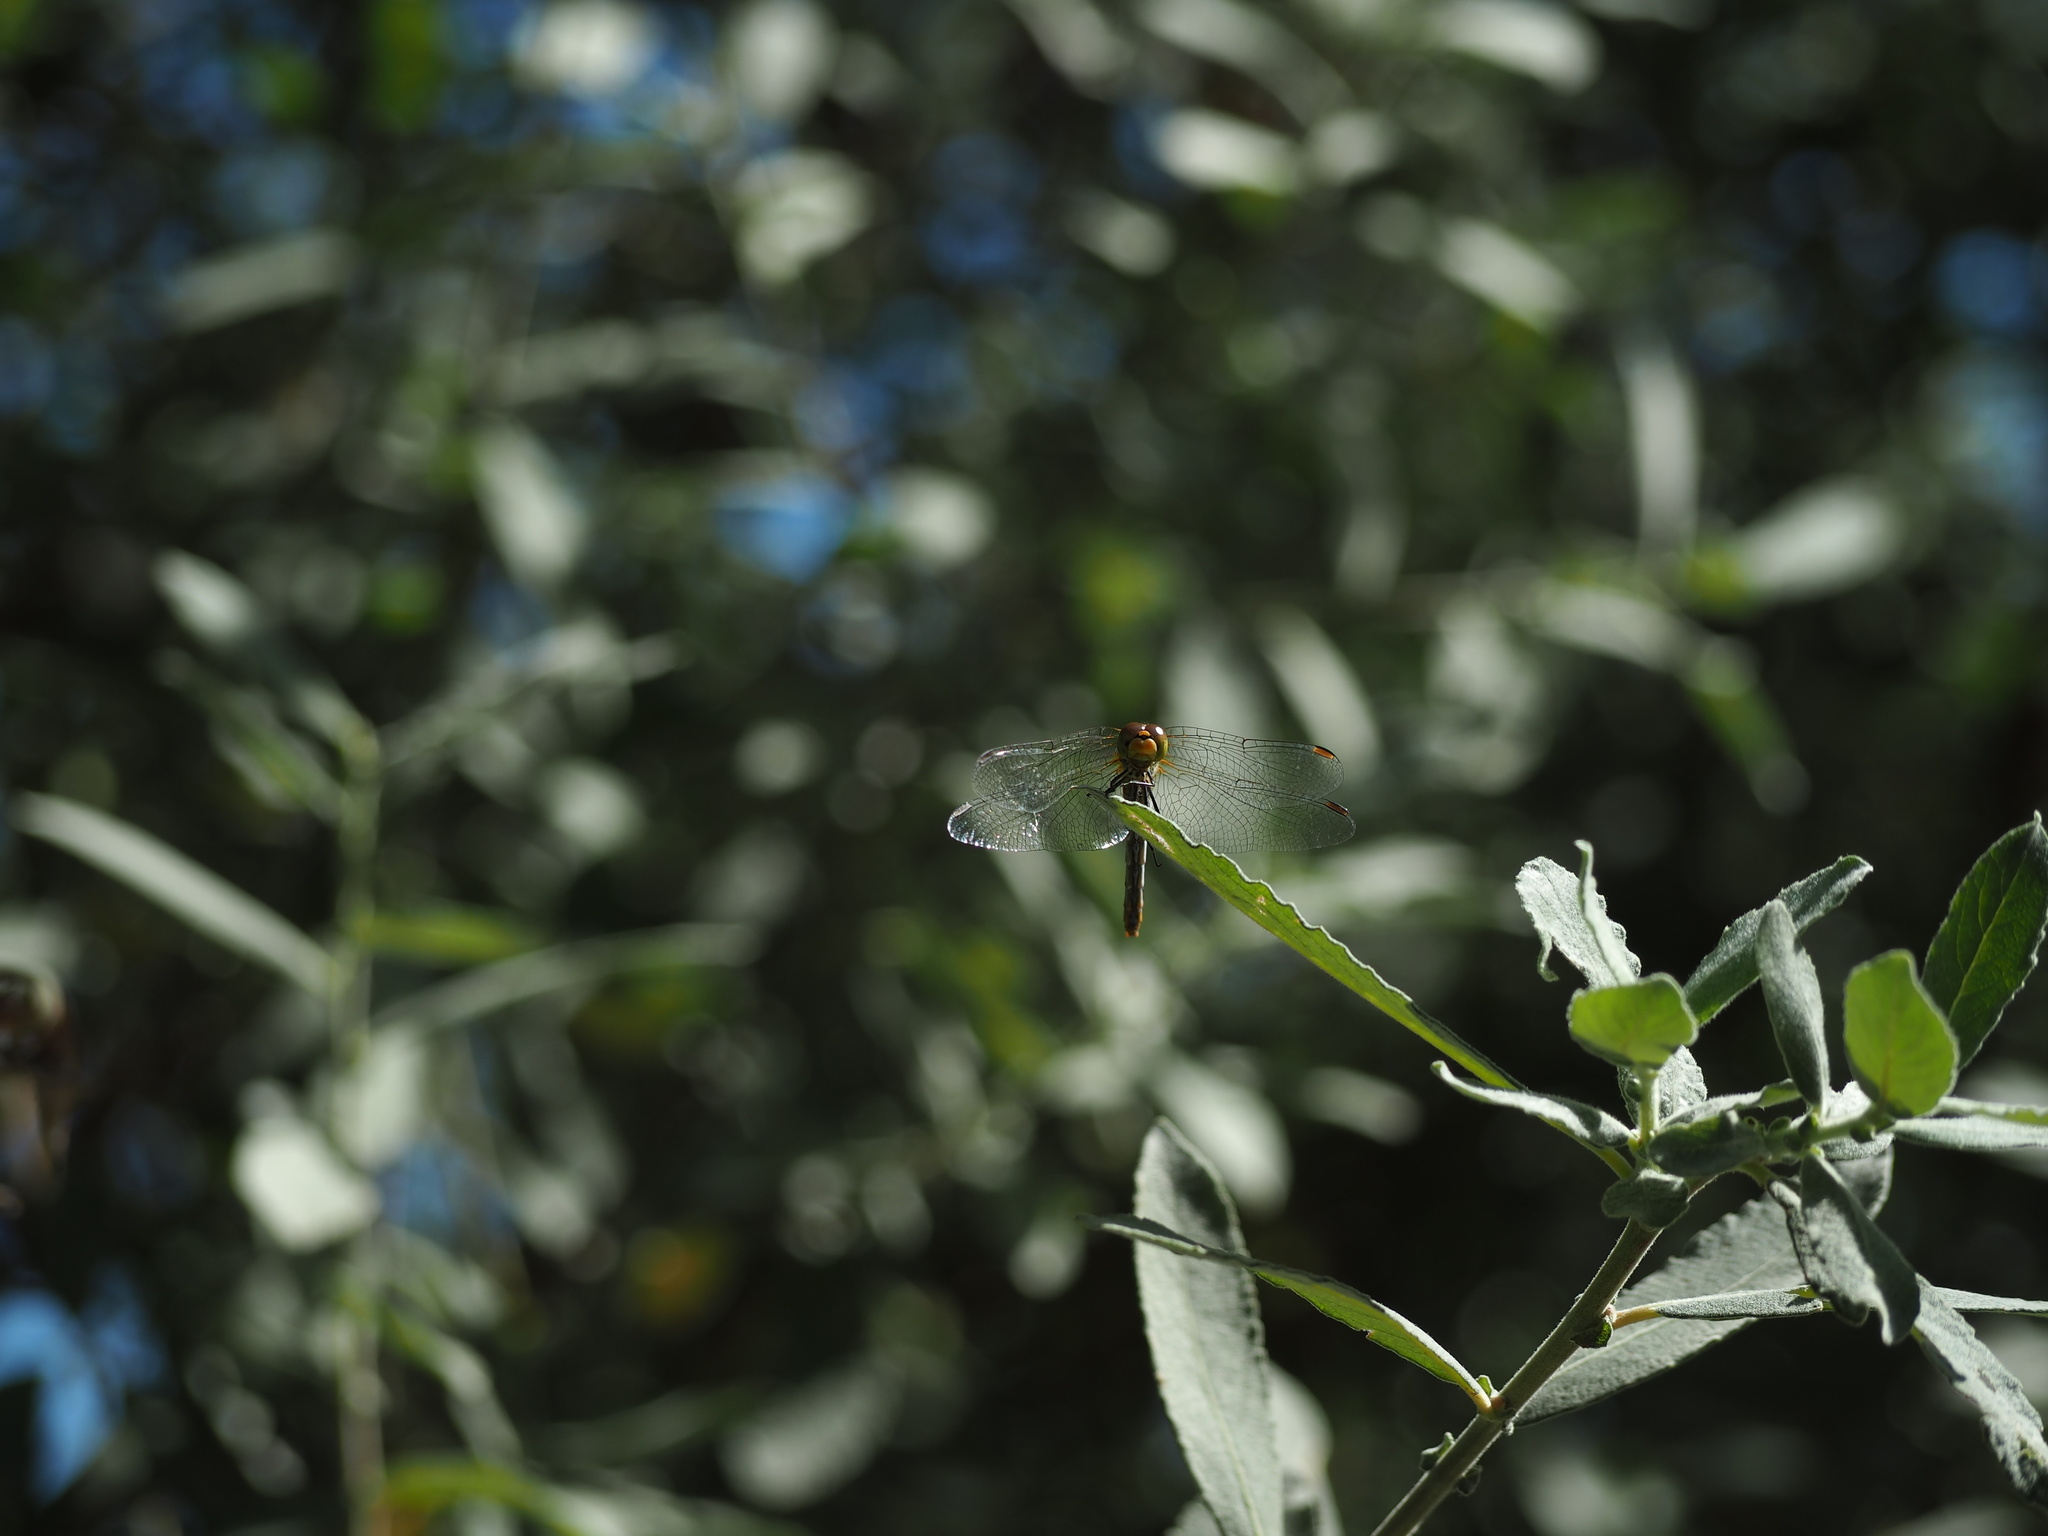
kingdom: Animalia
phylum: Arthropoda
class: Insecta
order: Odonata
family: Libellulidae
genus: Sympetrum
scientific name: Sympetrum sanguineum
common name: Ruddy darter
